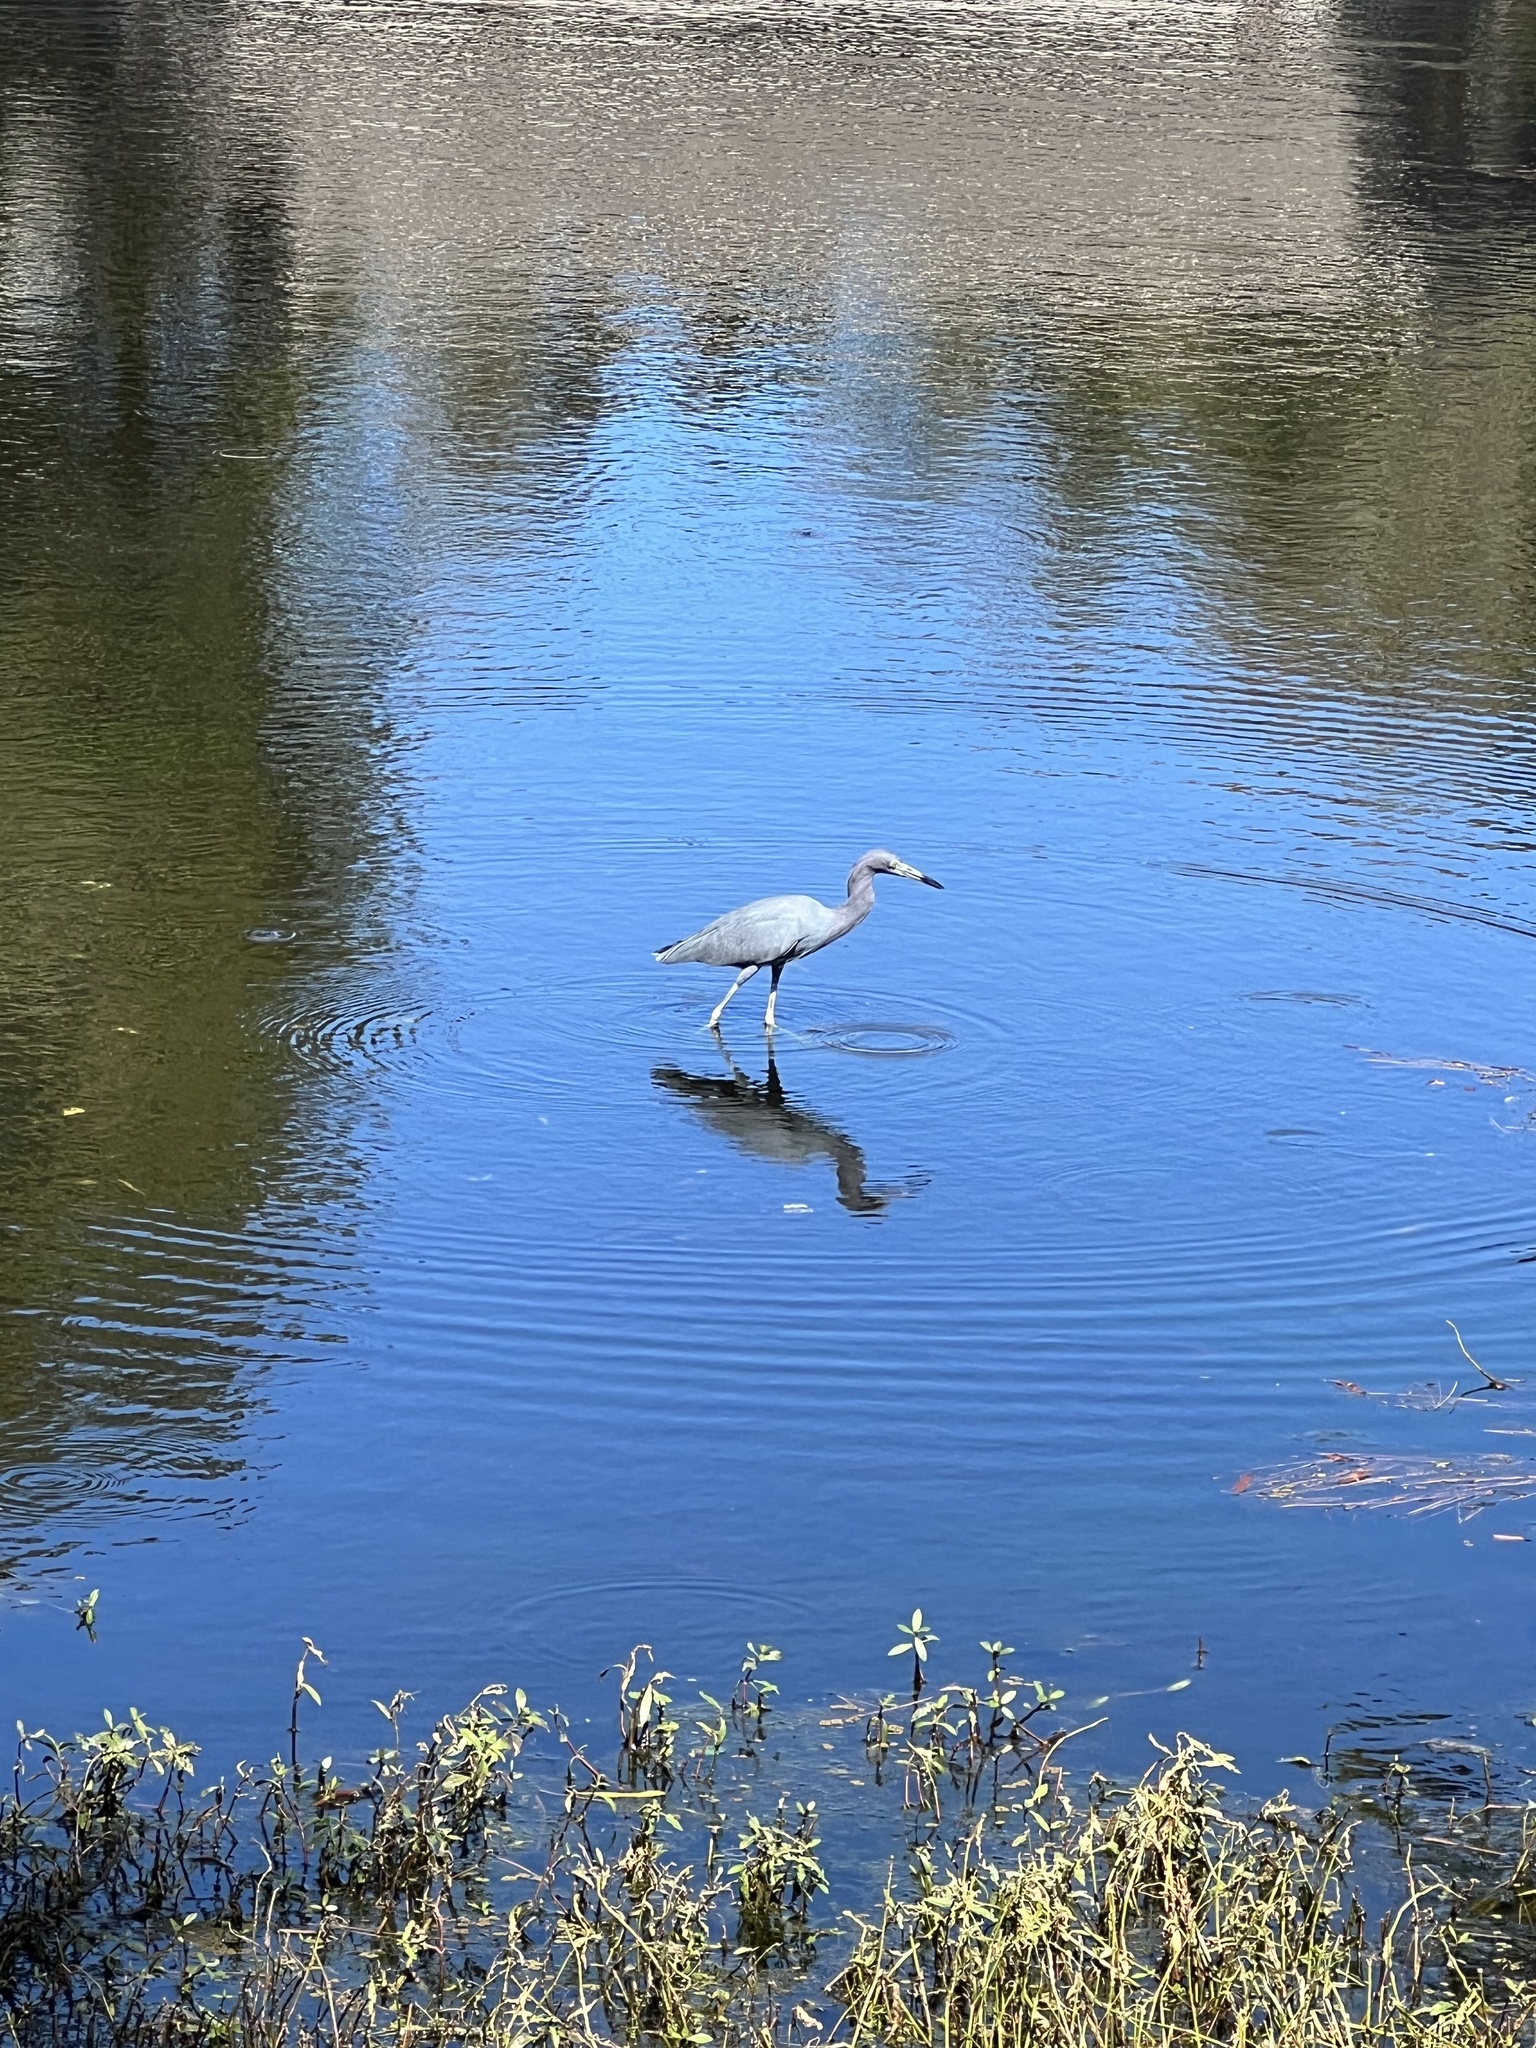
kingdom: Animalia
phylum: Chordata
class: Aves
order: Pelecaniformes
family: Ardeidae
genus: Egretta
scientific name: Egretta caerulea
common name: Little blue heron
